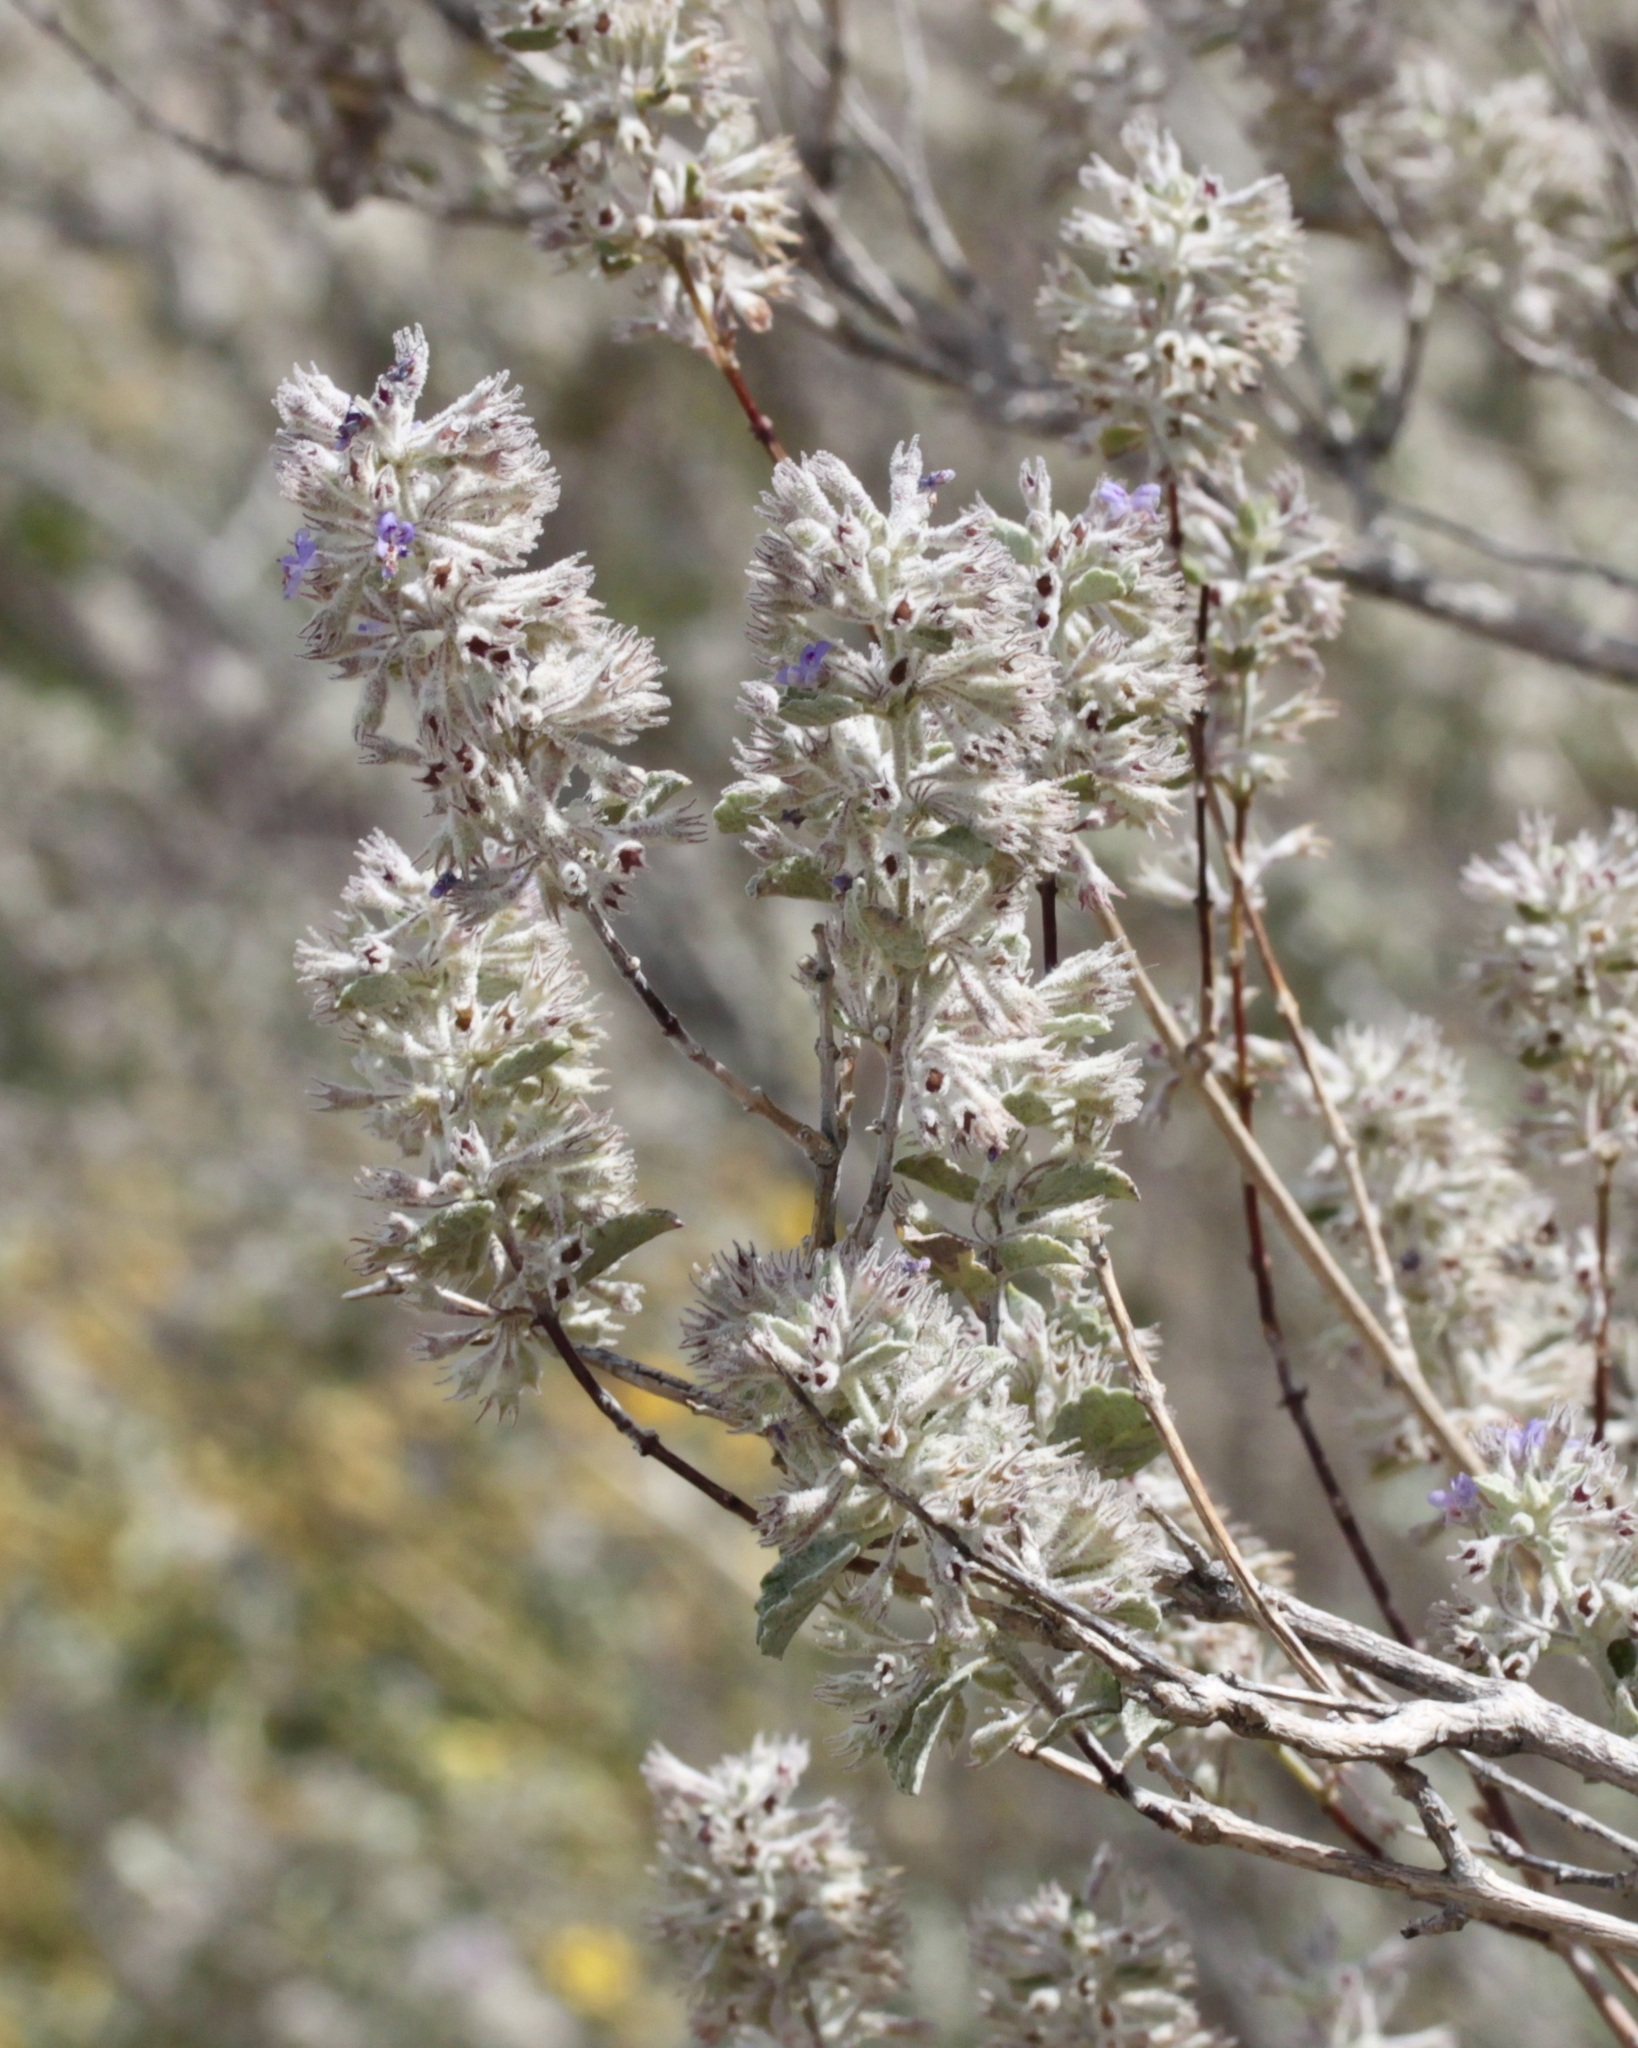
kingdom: Plantae
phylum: Tracheophyta
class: Magnoliopsida
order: Lamiales
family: Lamiaceae
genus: Condea
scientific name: Condea emoryi
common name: Chia
